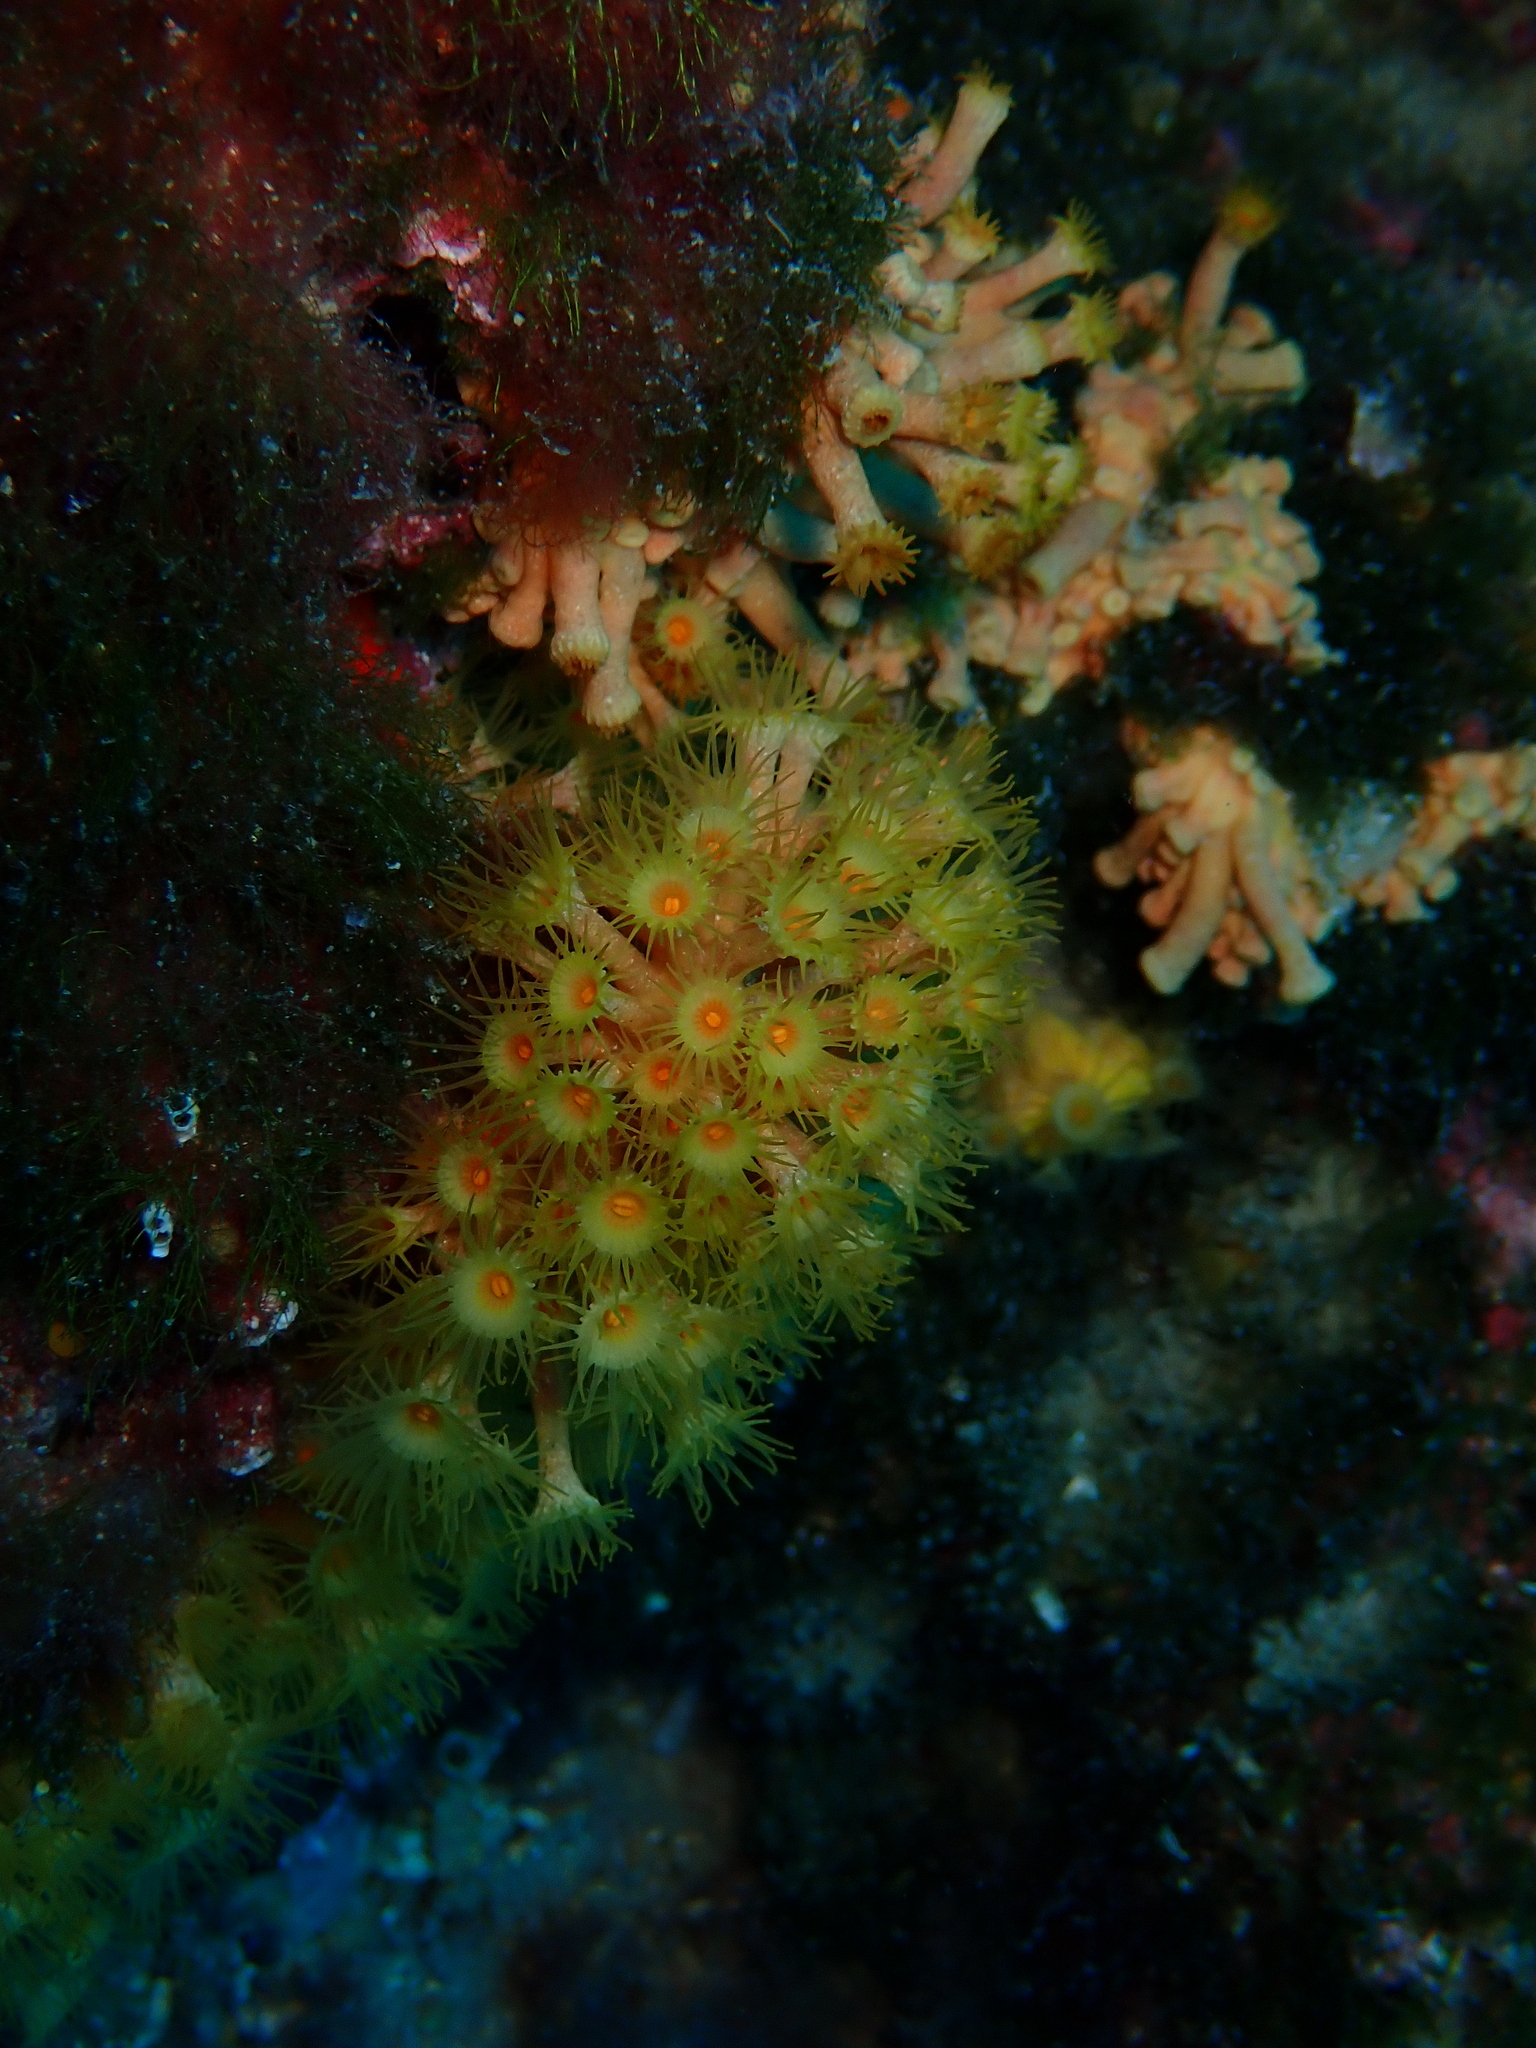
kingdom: Animalia
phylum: Cnidaria
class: Anthozoa
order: Zoantharia
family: Parazoanthidae
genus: Parazoanthus
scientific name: Parazoanthus axinellae
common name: Yellow cluster anemone
